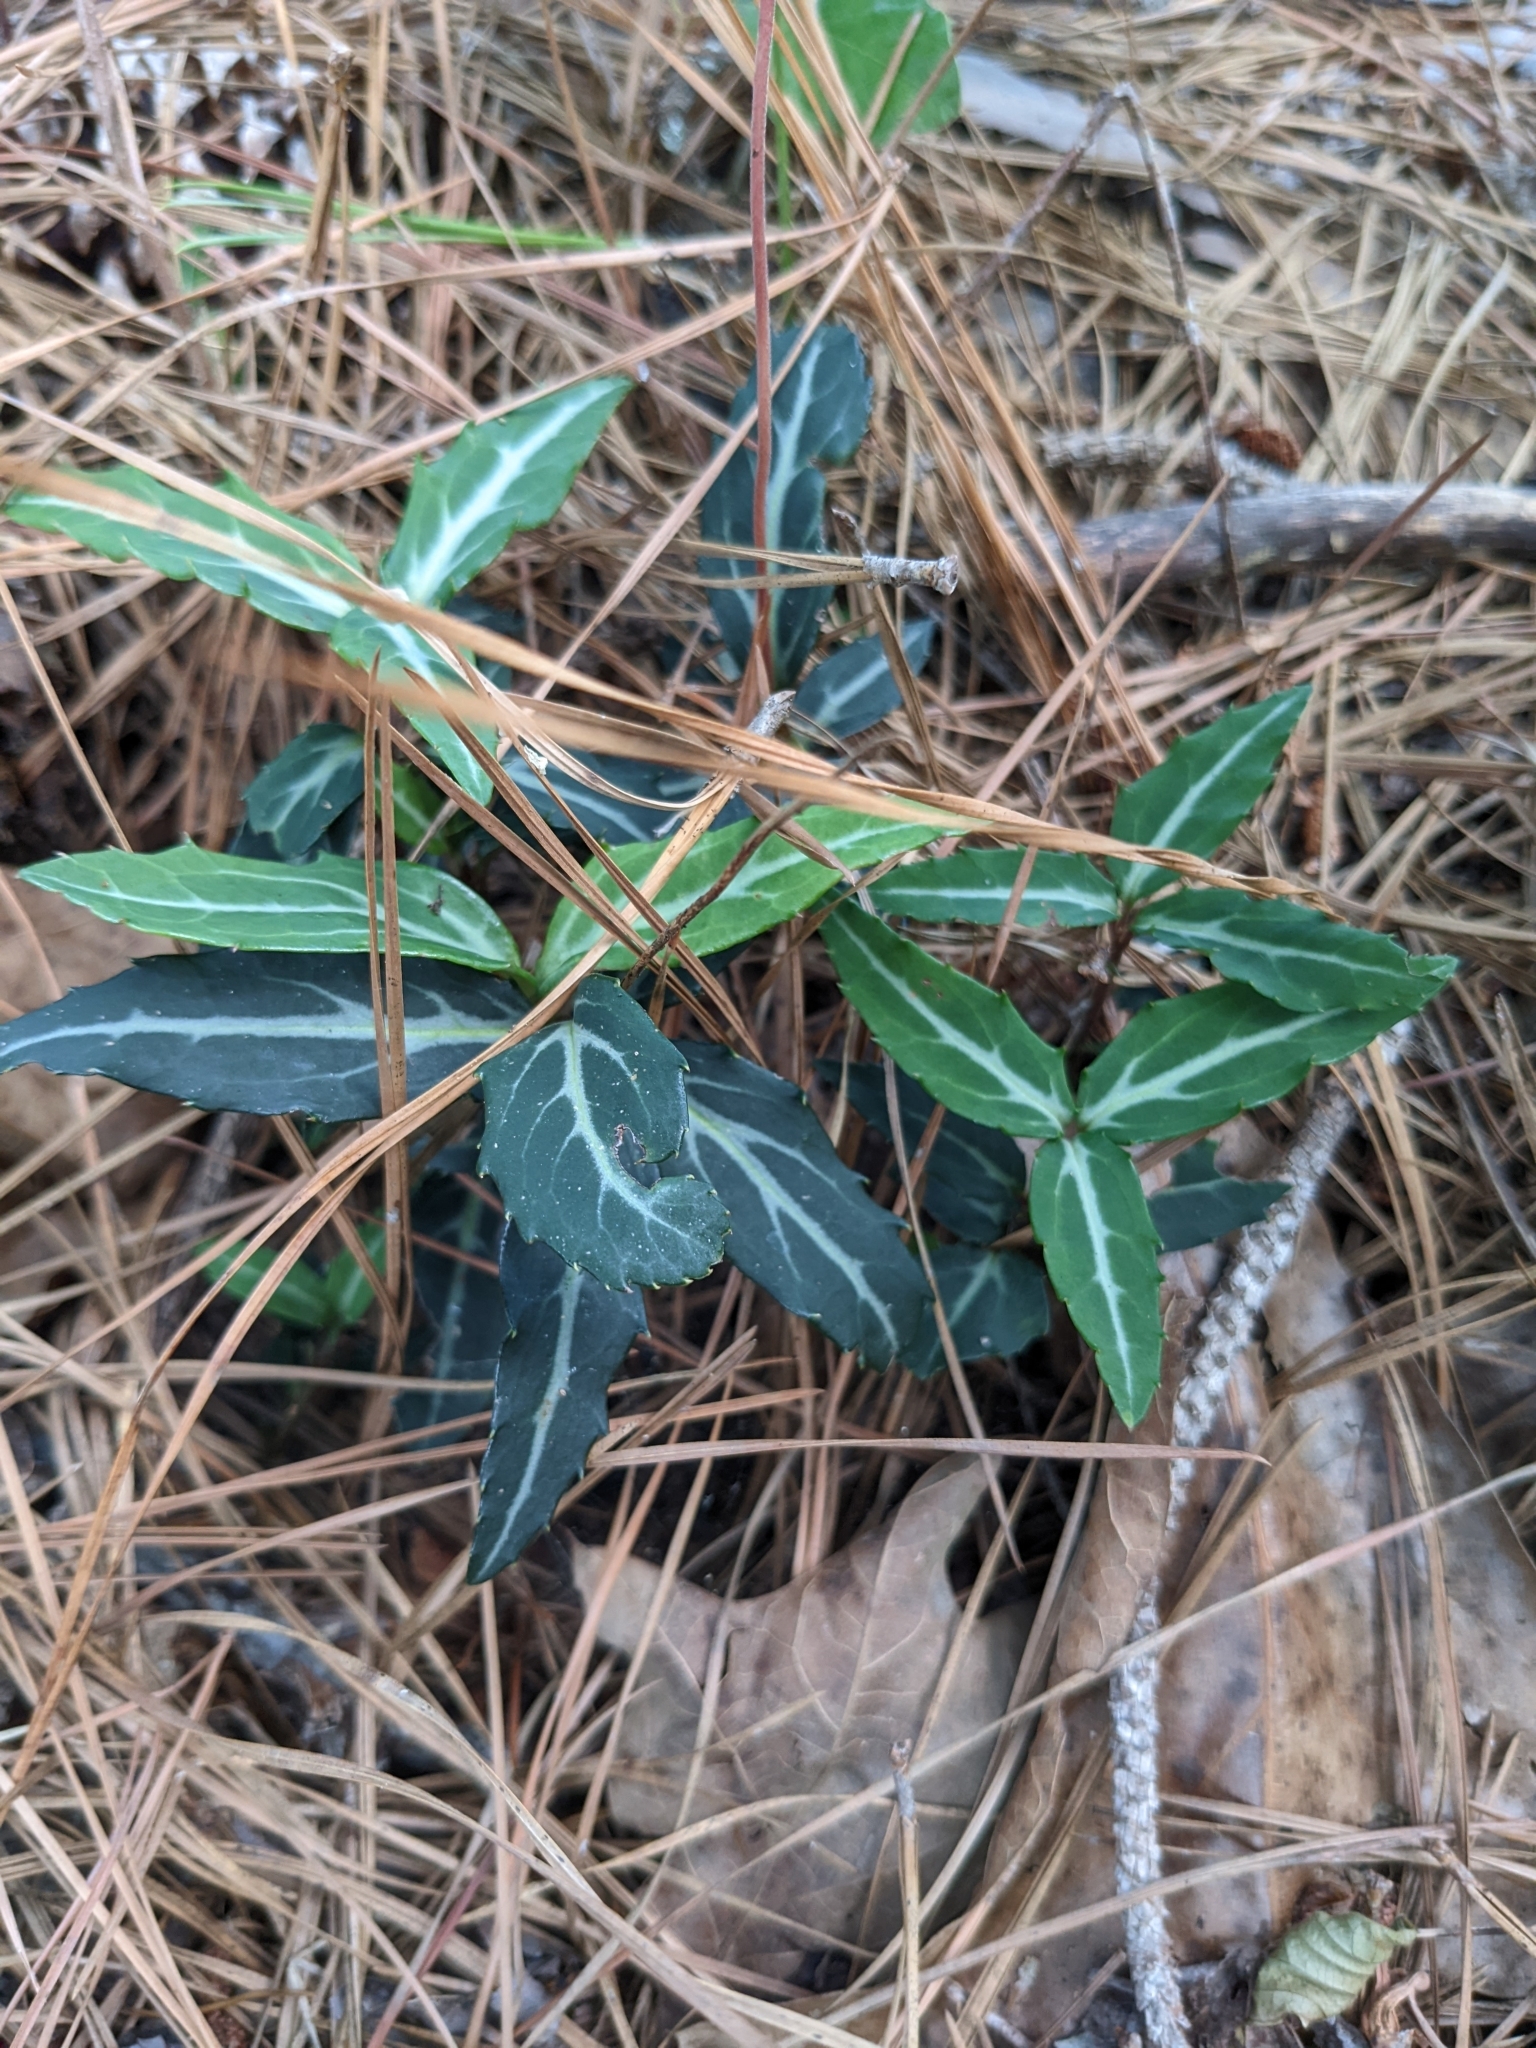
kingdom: Plantae
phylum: Tracheophyta
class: Magnoliopsida
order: Ericales
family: Ericaceae
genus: Chimaphila
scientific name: Chimaphila maculata
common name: Spotted pipsissewa
